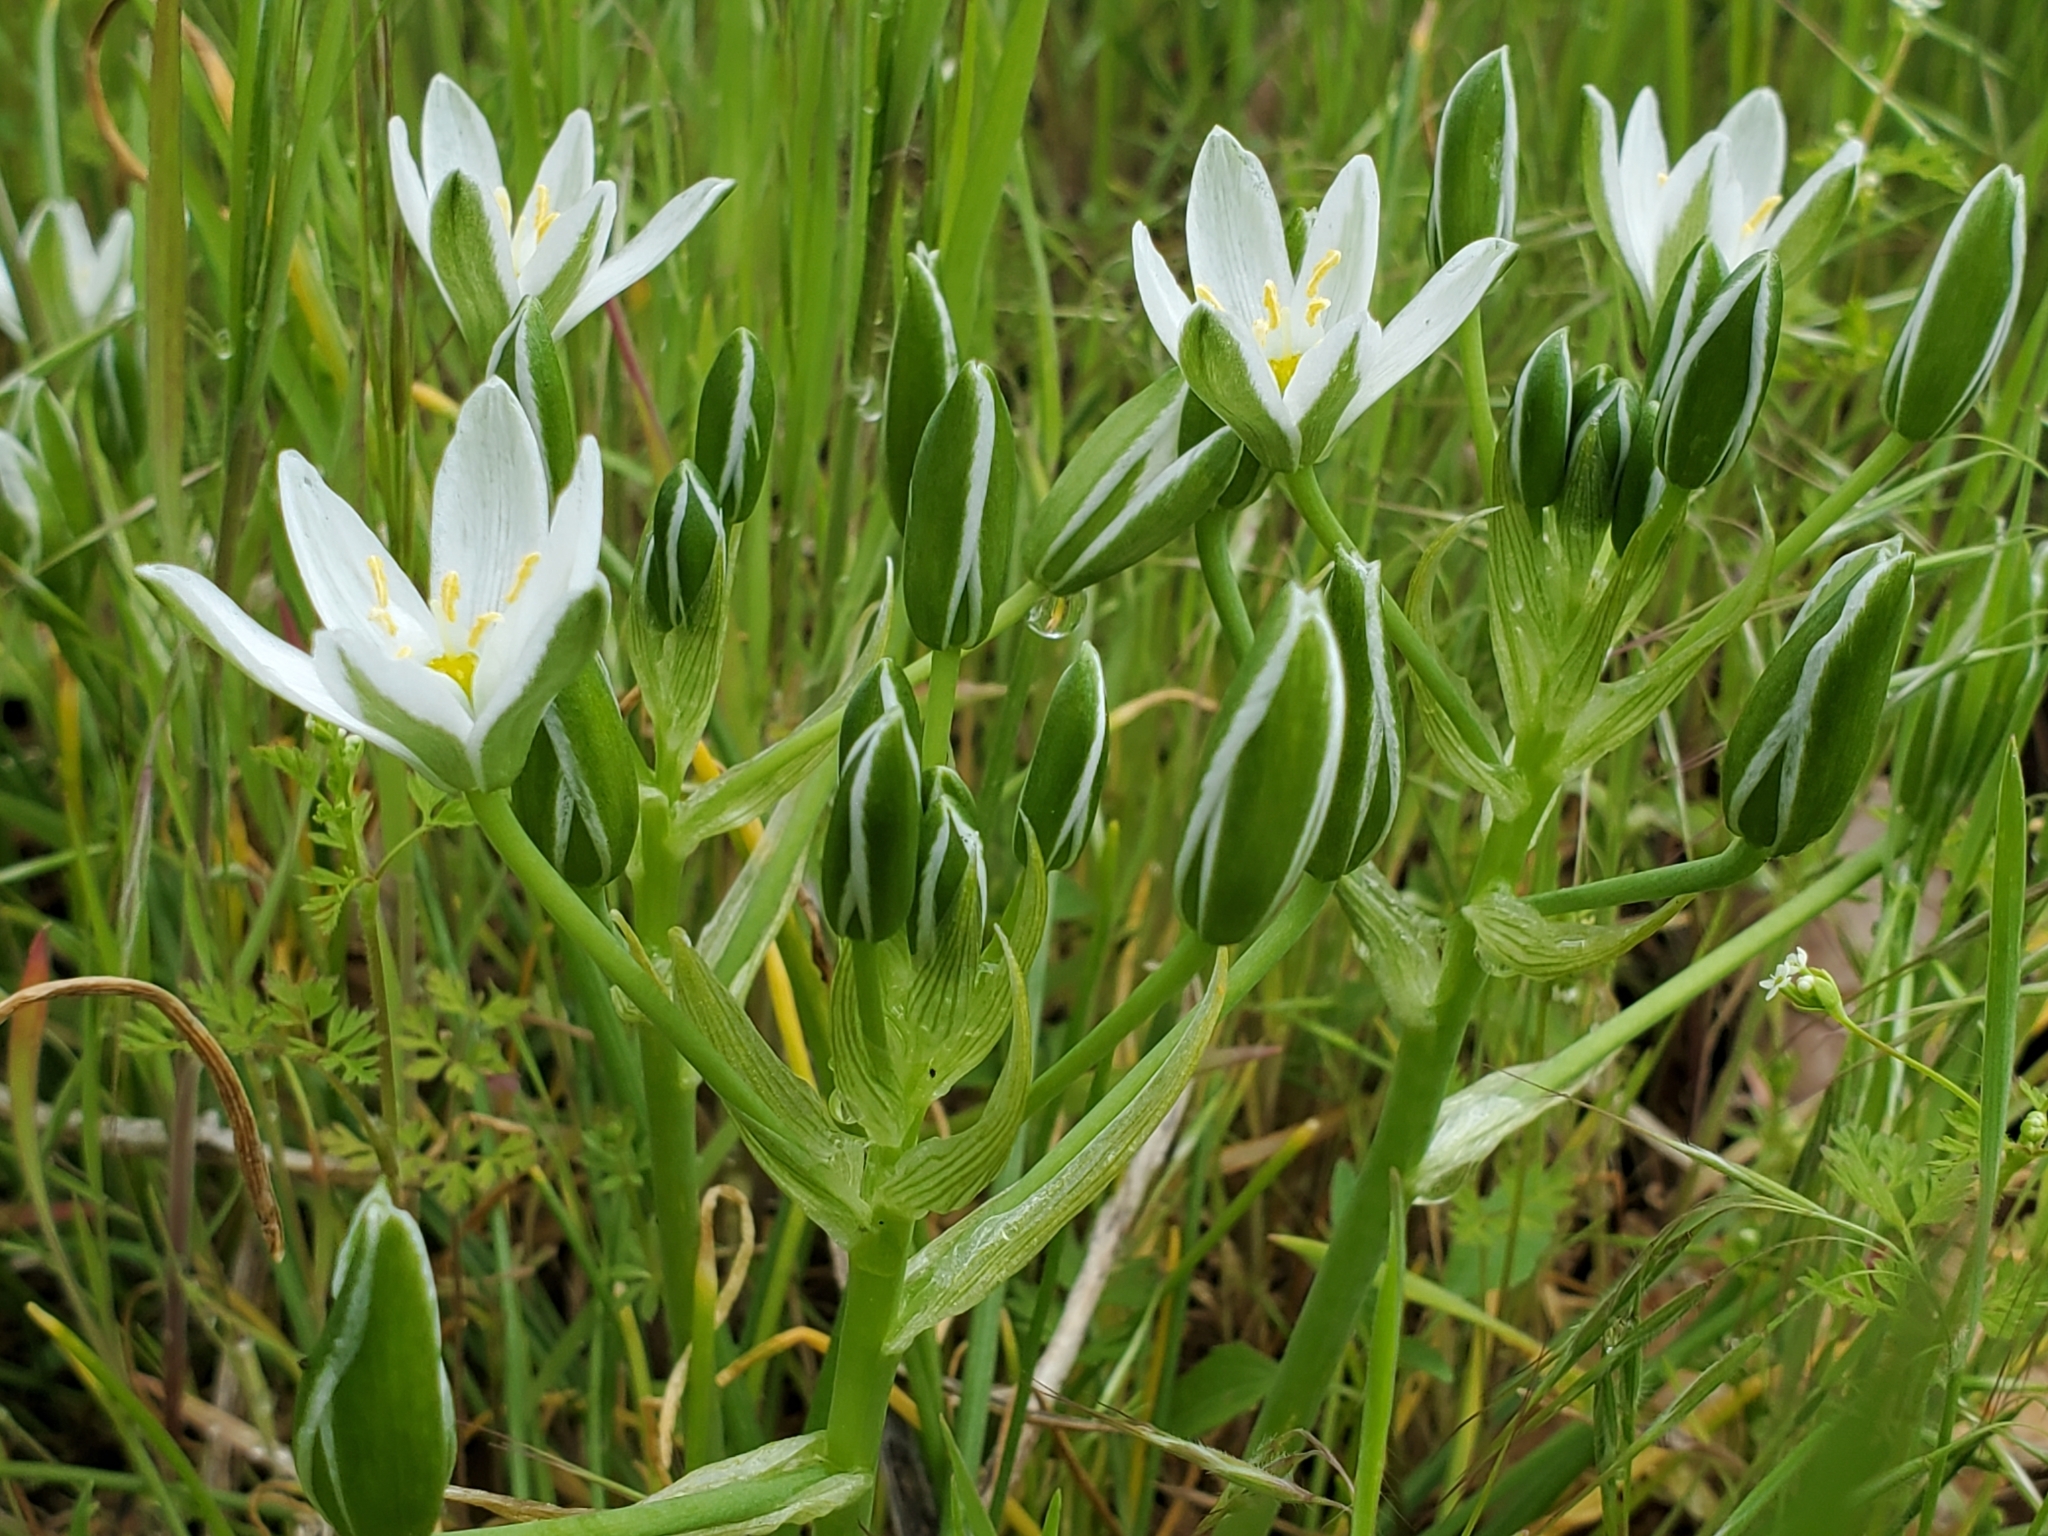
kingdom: Plantae
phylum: Tracheophyta
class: Liliopsida
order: Asparagales
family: Asparagaceae
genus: Ornithogalum
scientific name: Ornithogalum umbellatum
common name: Garden star-of-bethlehem
